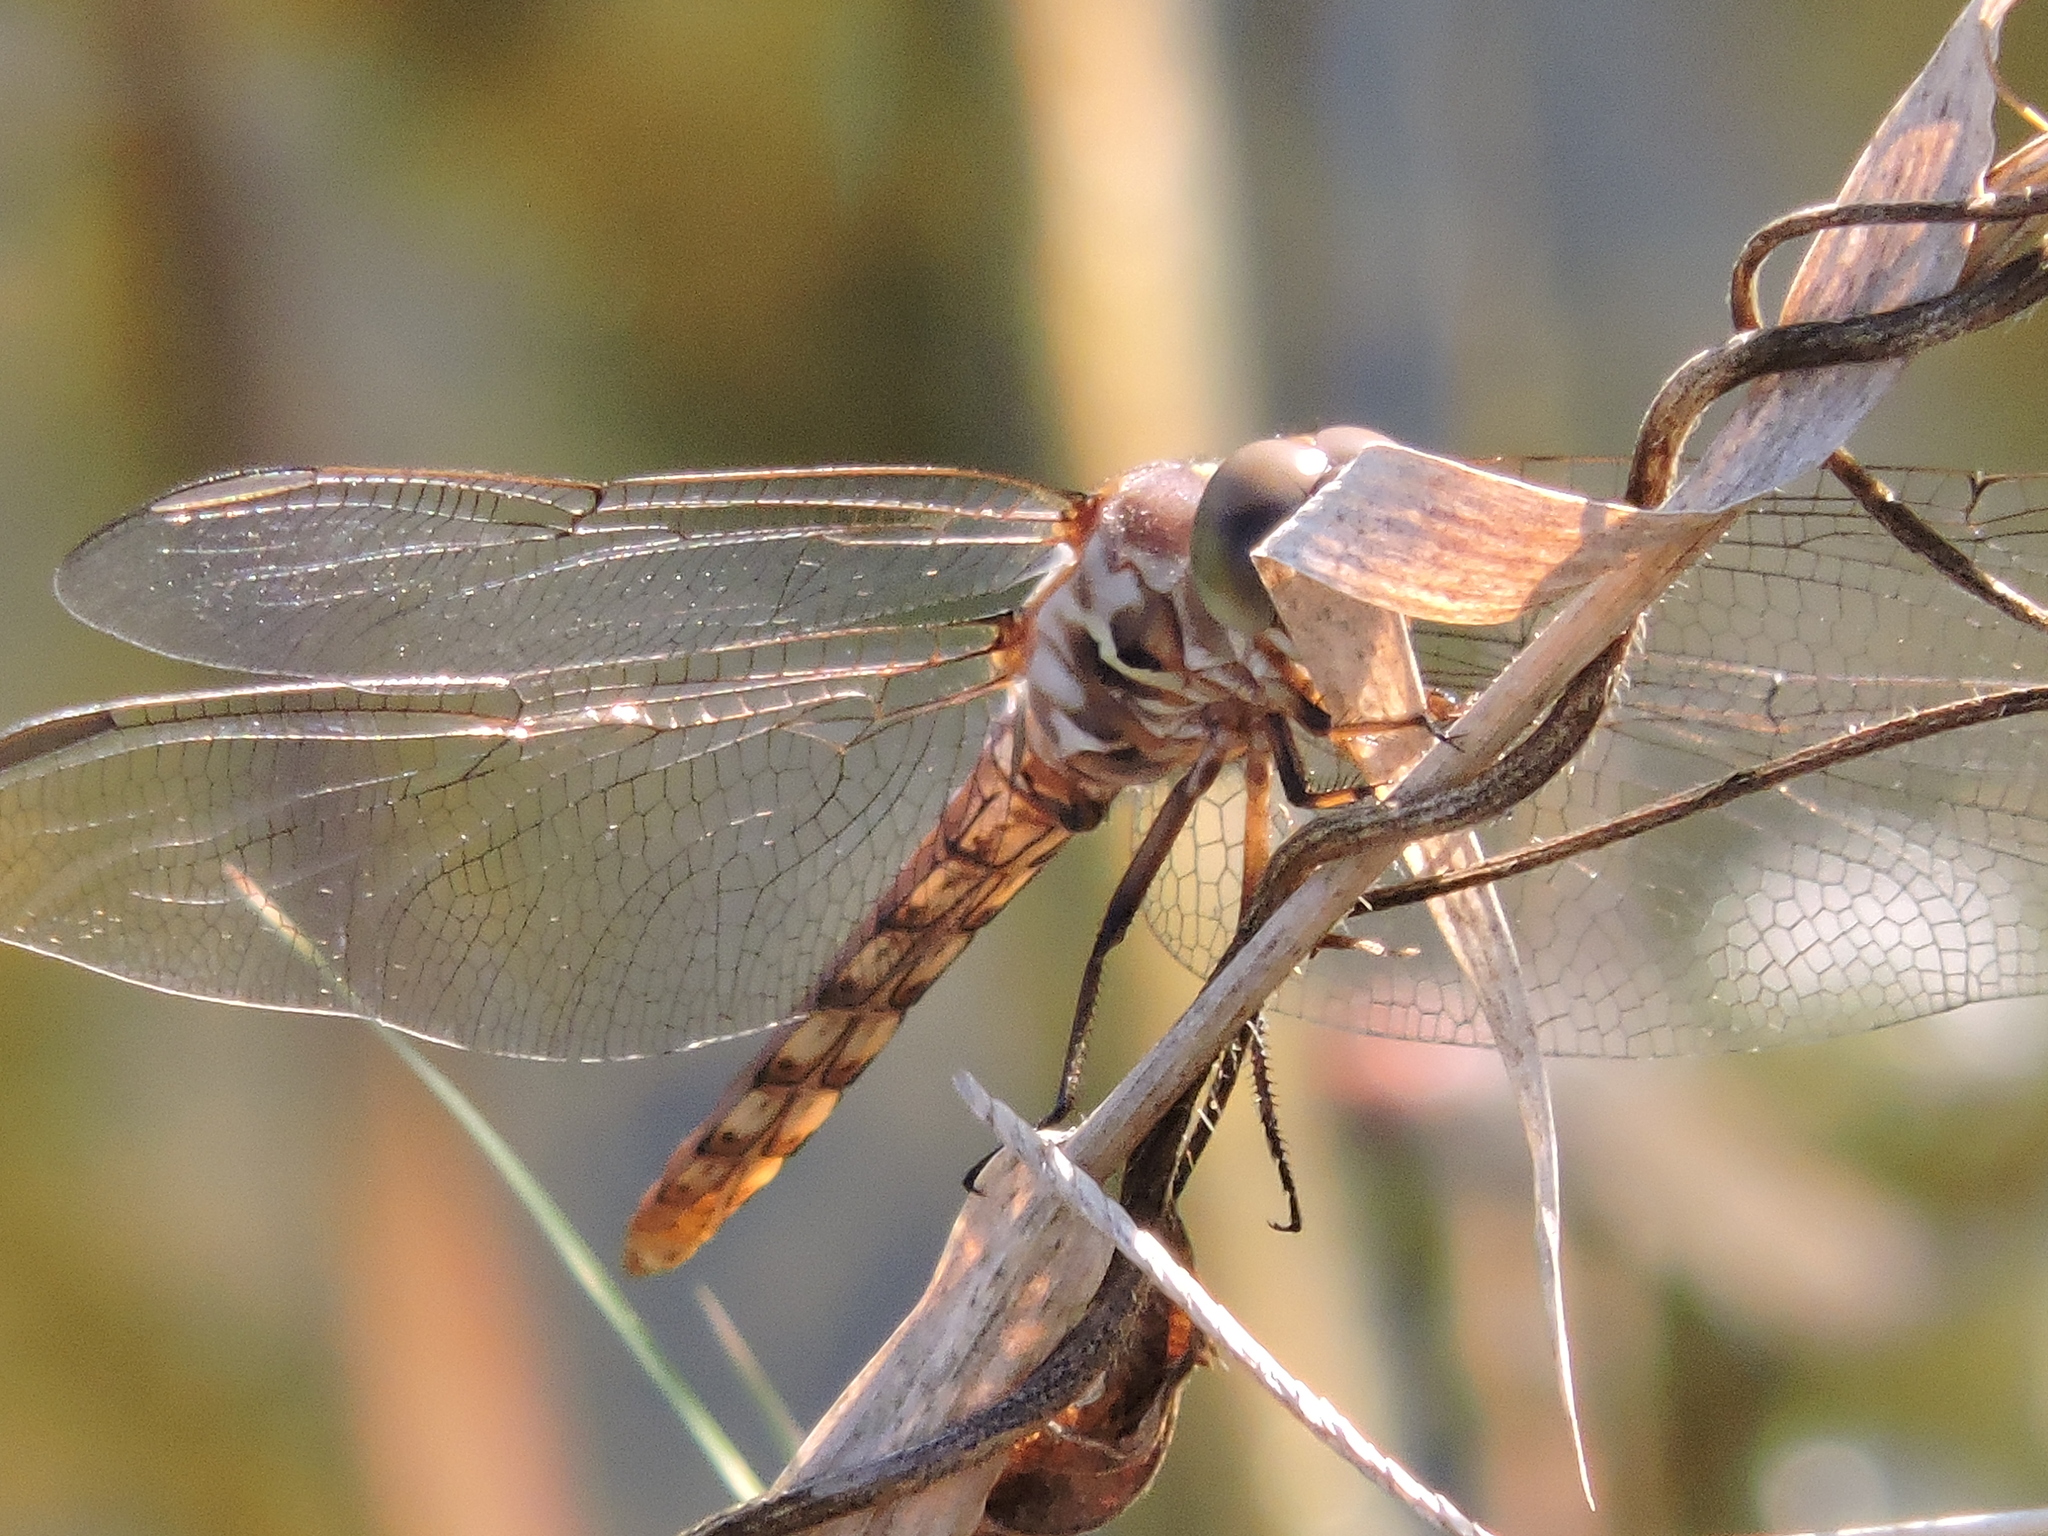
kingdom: Animalia
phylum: Arthropoda
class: Insecta
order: Odonata
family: Libellulidae
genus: Sympetrum
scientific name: Sympetrum corruptum
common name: Variegated meadowhawk
